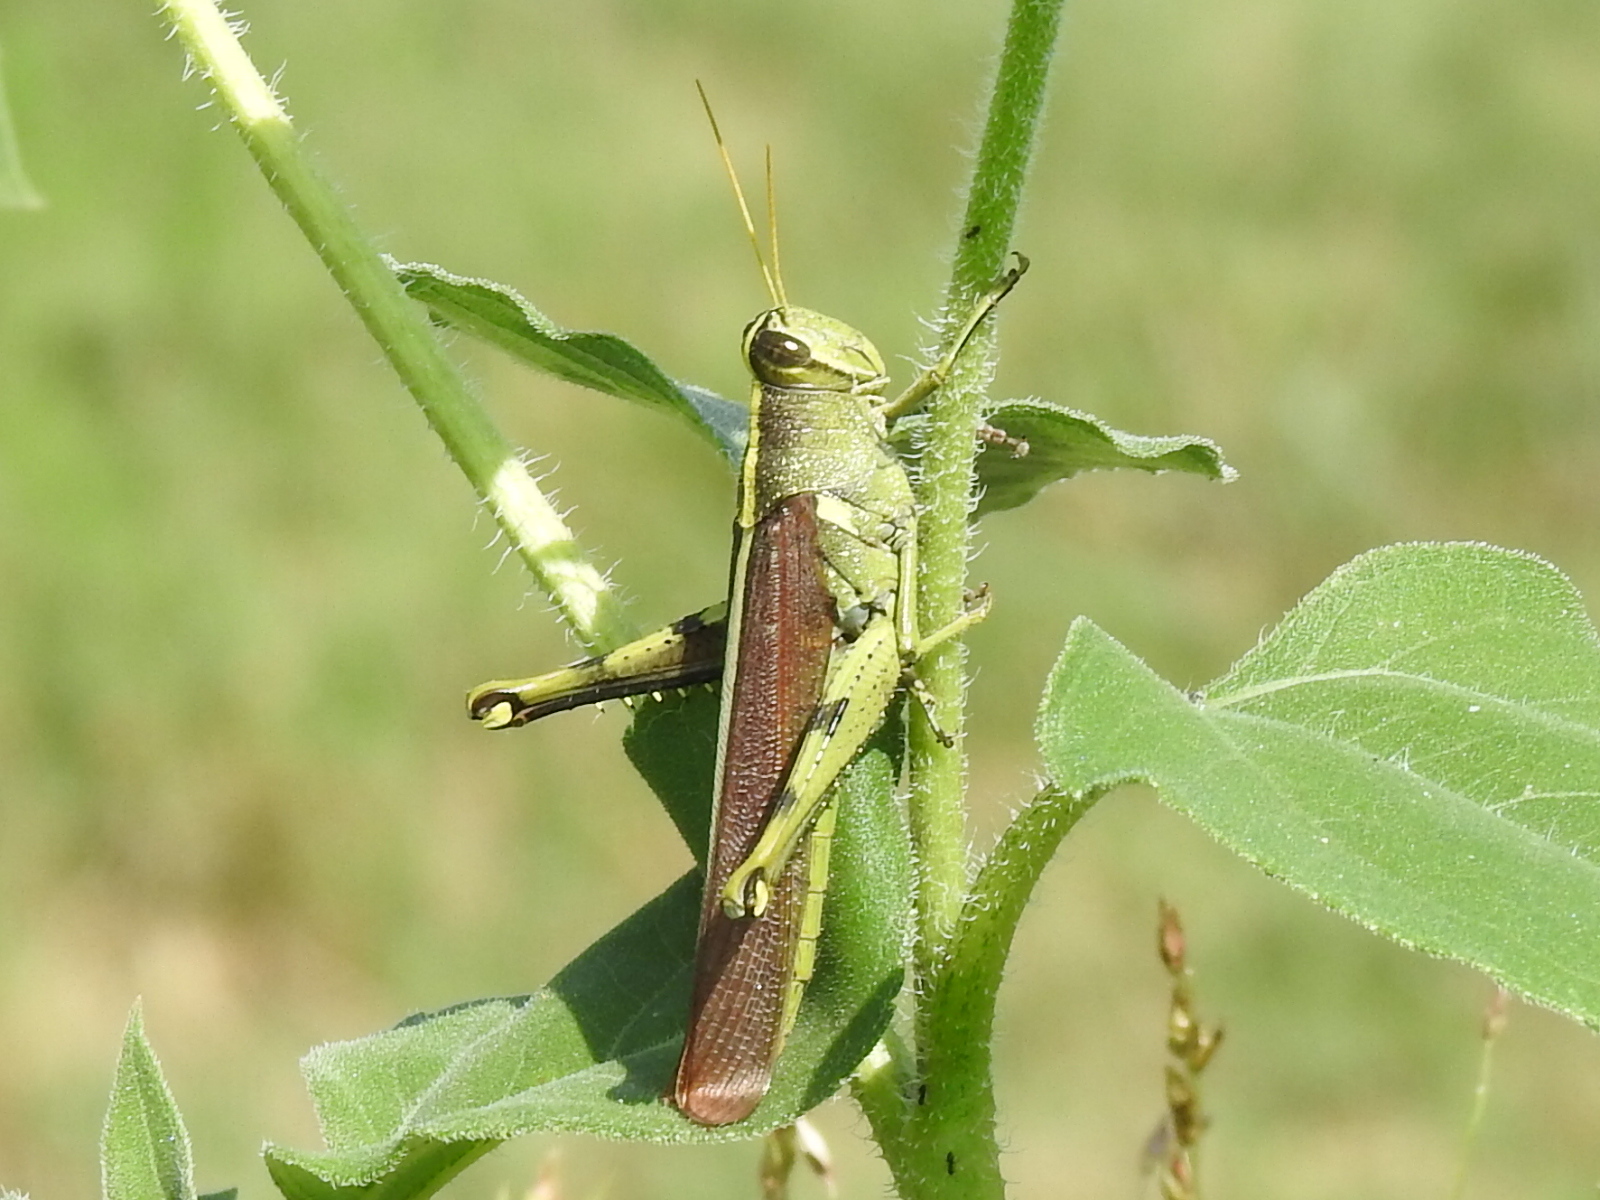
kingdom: Animalia
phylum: Arthropoda
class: Insecta
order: Orthoptera
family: Acrididae
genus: Schistocerca
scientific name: Schistocerca obscura
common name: Obscure bird grasshopper
